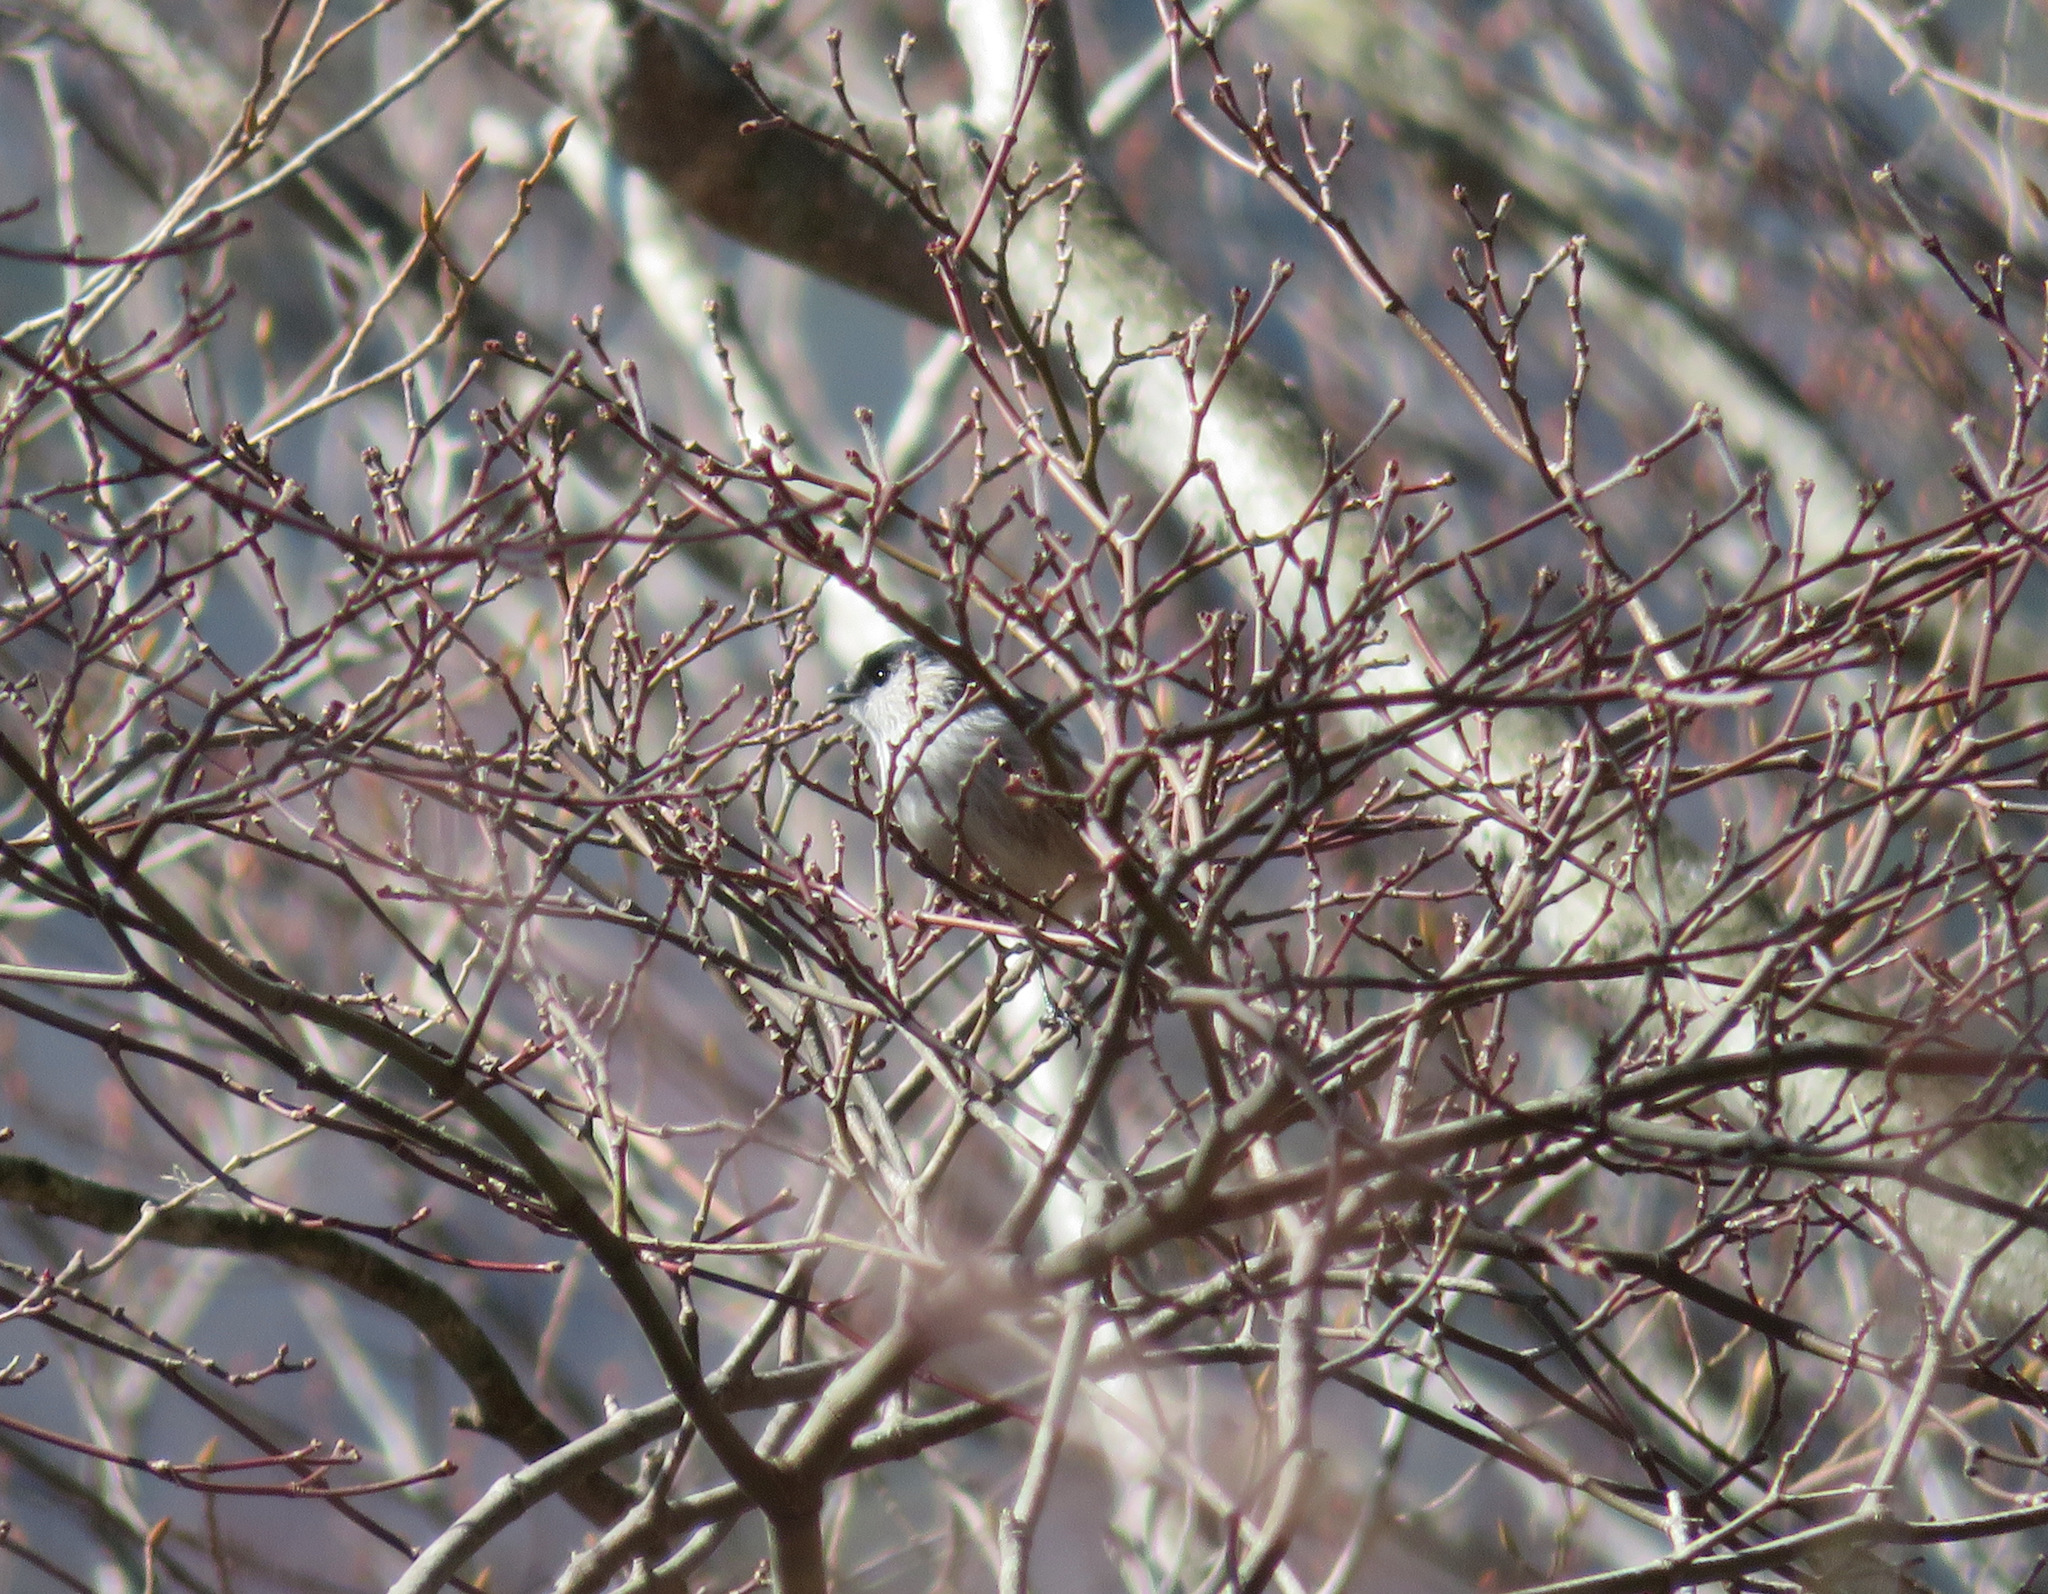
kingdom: Animalia
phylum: Chordata
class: Aves
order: Passeriformes
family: Aegithalidae
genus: Aegithalos
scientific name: Aegithalos caudatus
